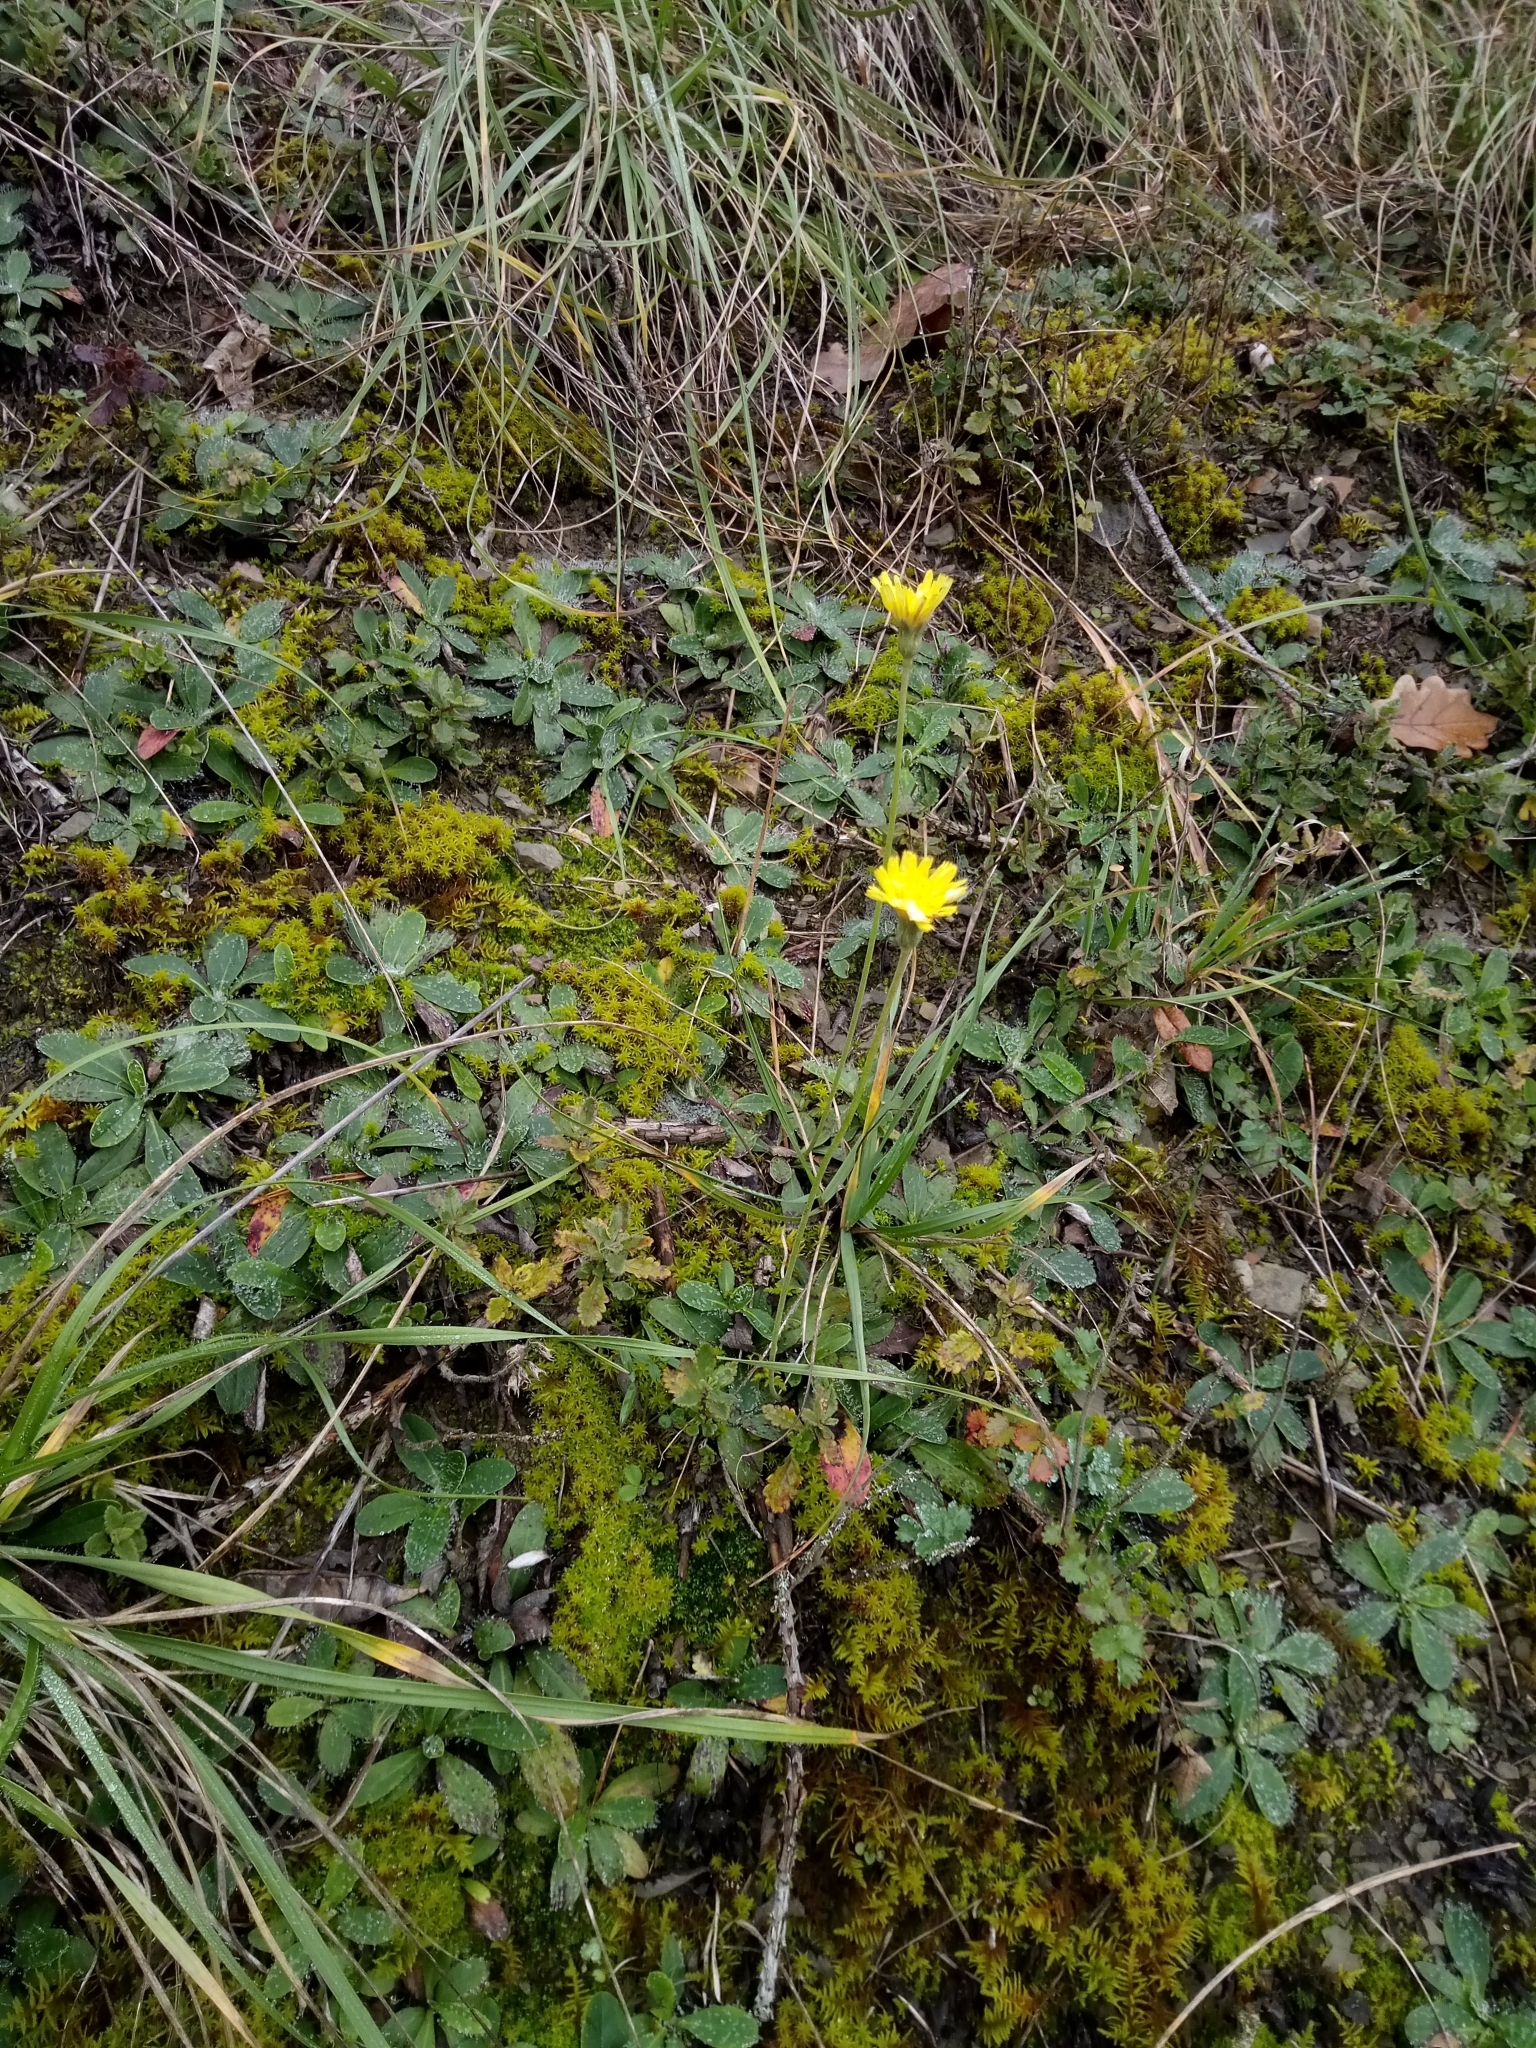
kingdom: Plantae
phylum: Tracheophyta
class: Magnoliopsida
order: Asterales
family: Asteraceae
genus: Pilosella
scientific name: Pilosella officinarum
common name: Mouse-ear hawkweed
